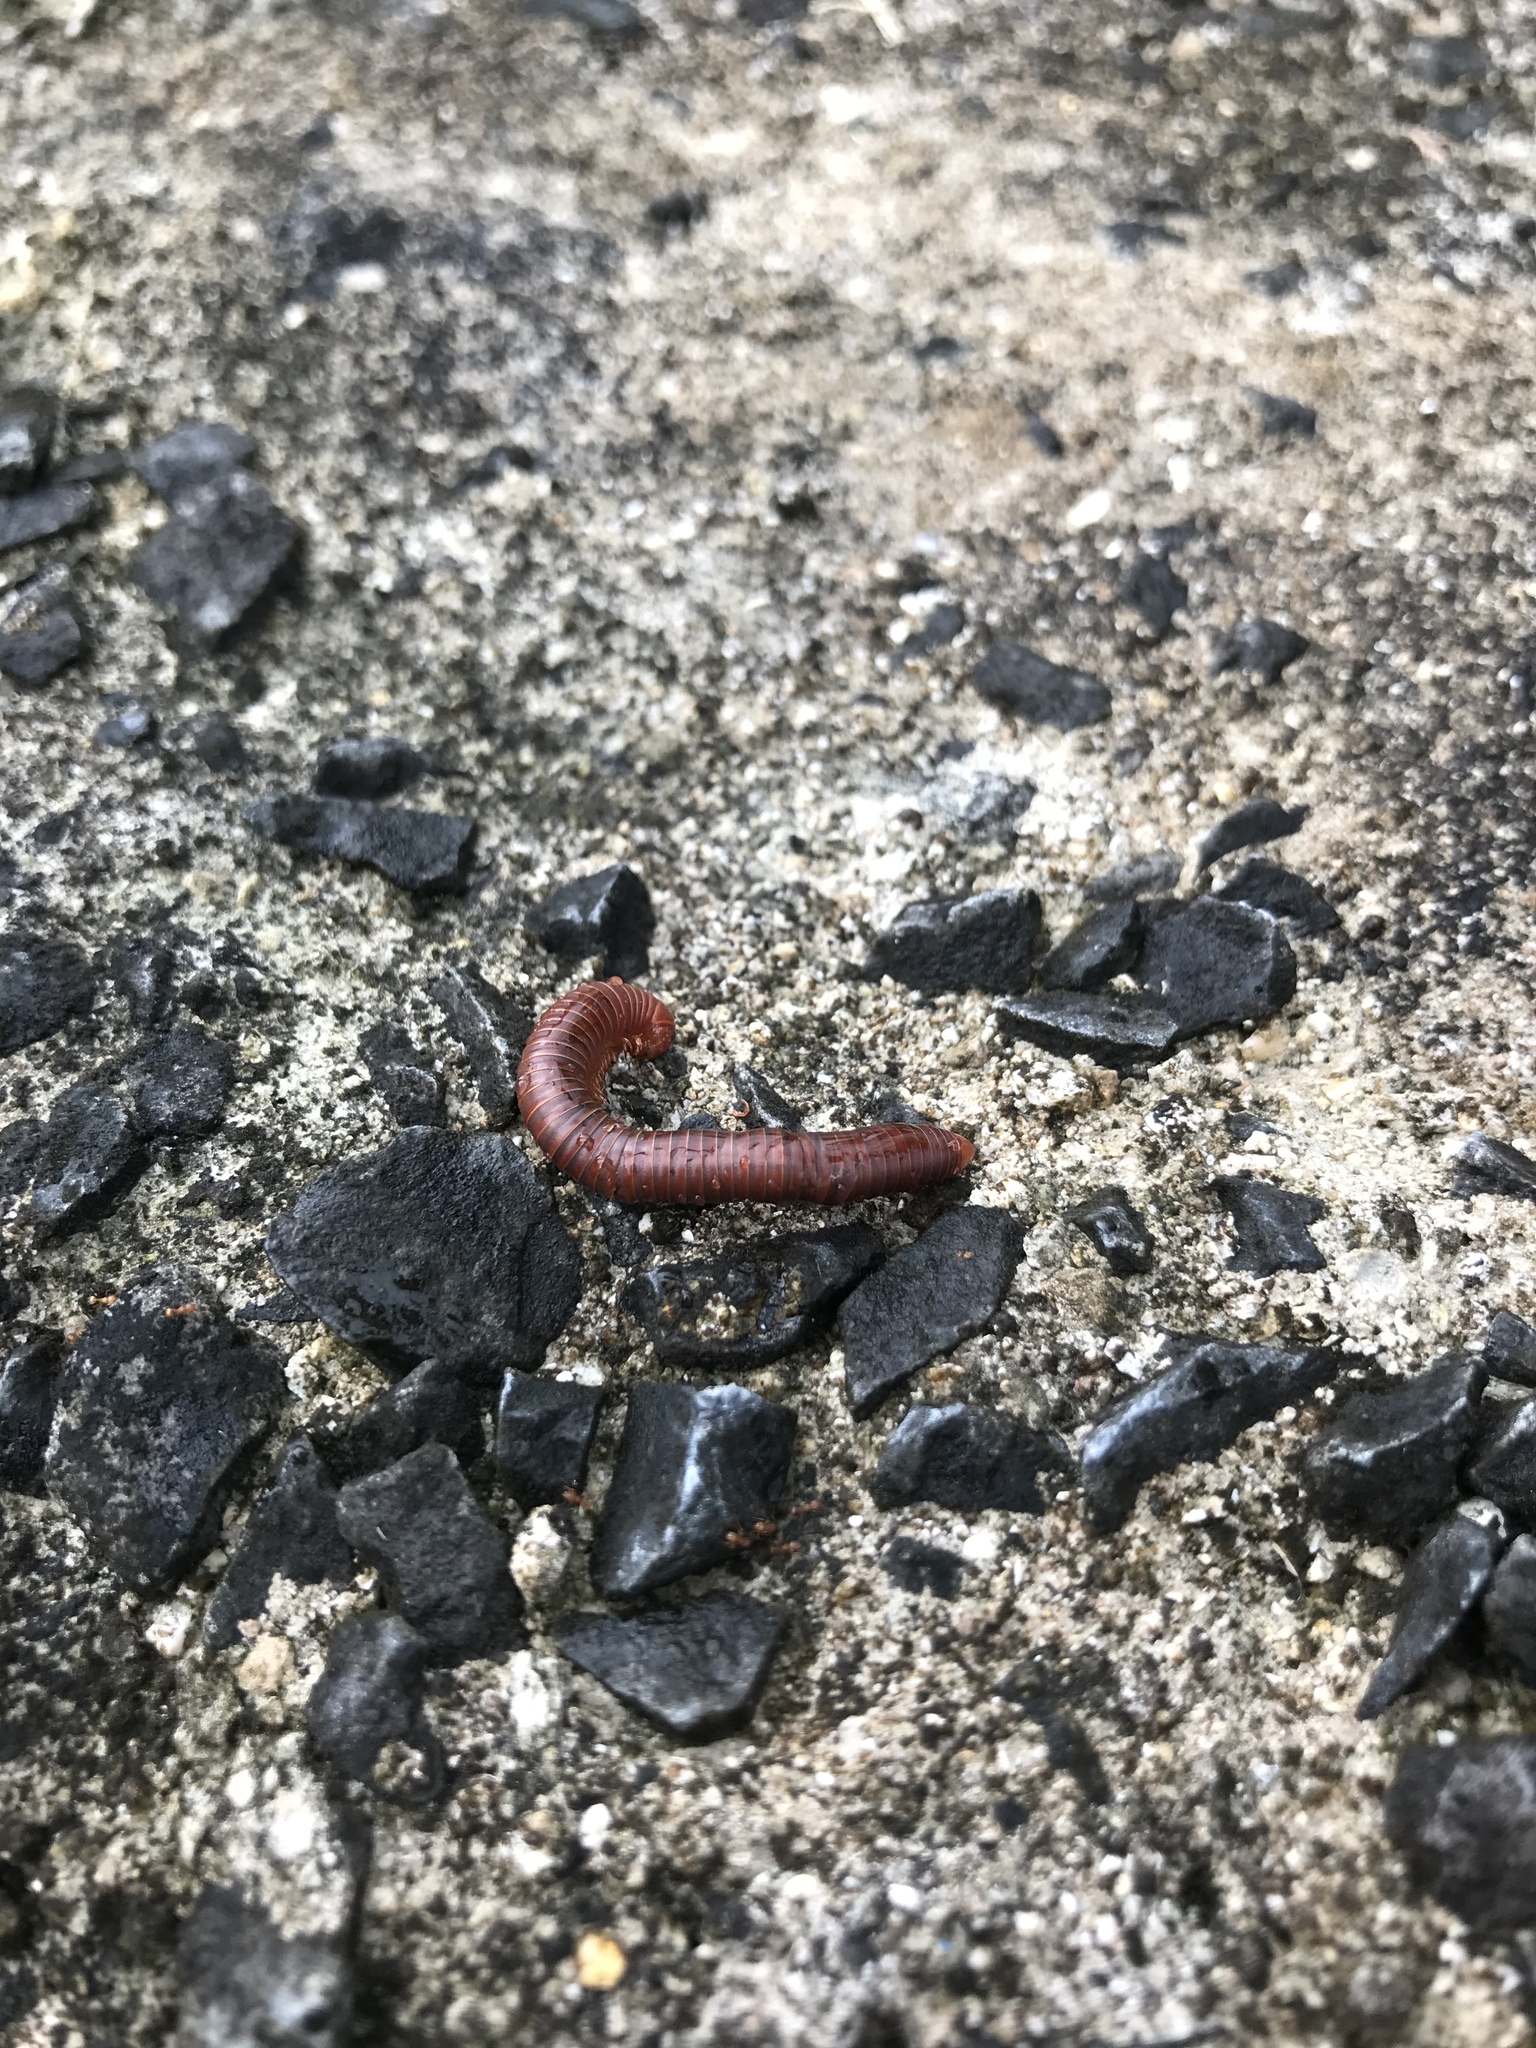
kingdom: Animalia
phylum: Arthropoda
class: Diplopoda
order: Spirobolida
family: Pachybolidae
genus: Trigoniulus
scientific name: Trigoniulus corallinus
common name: Millipede
